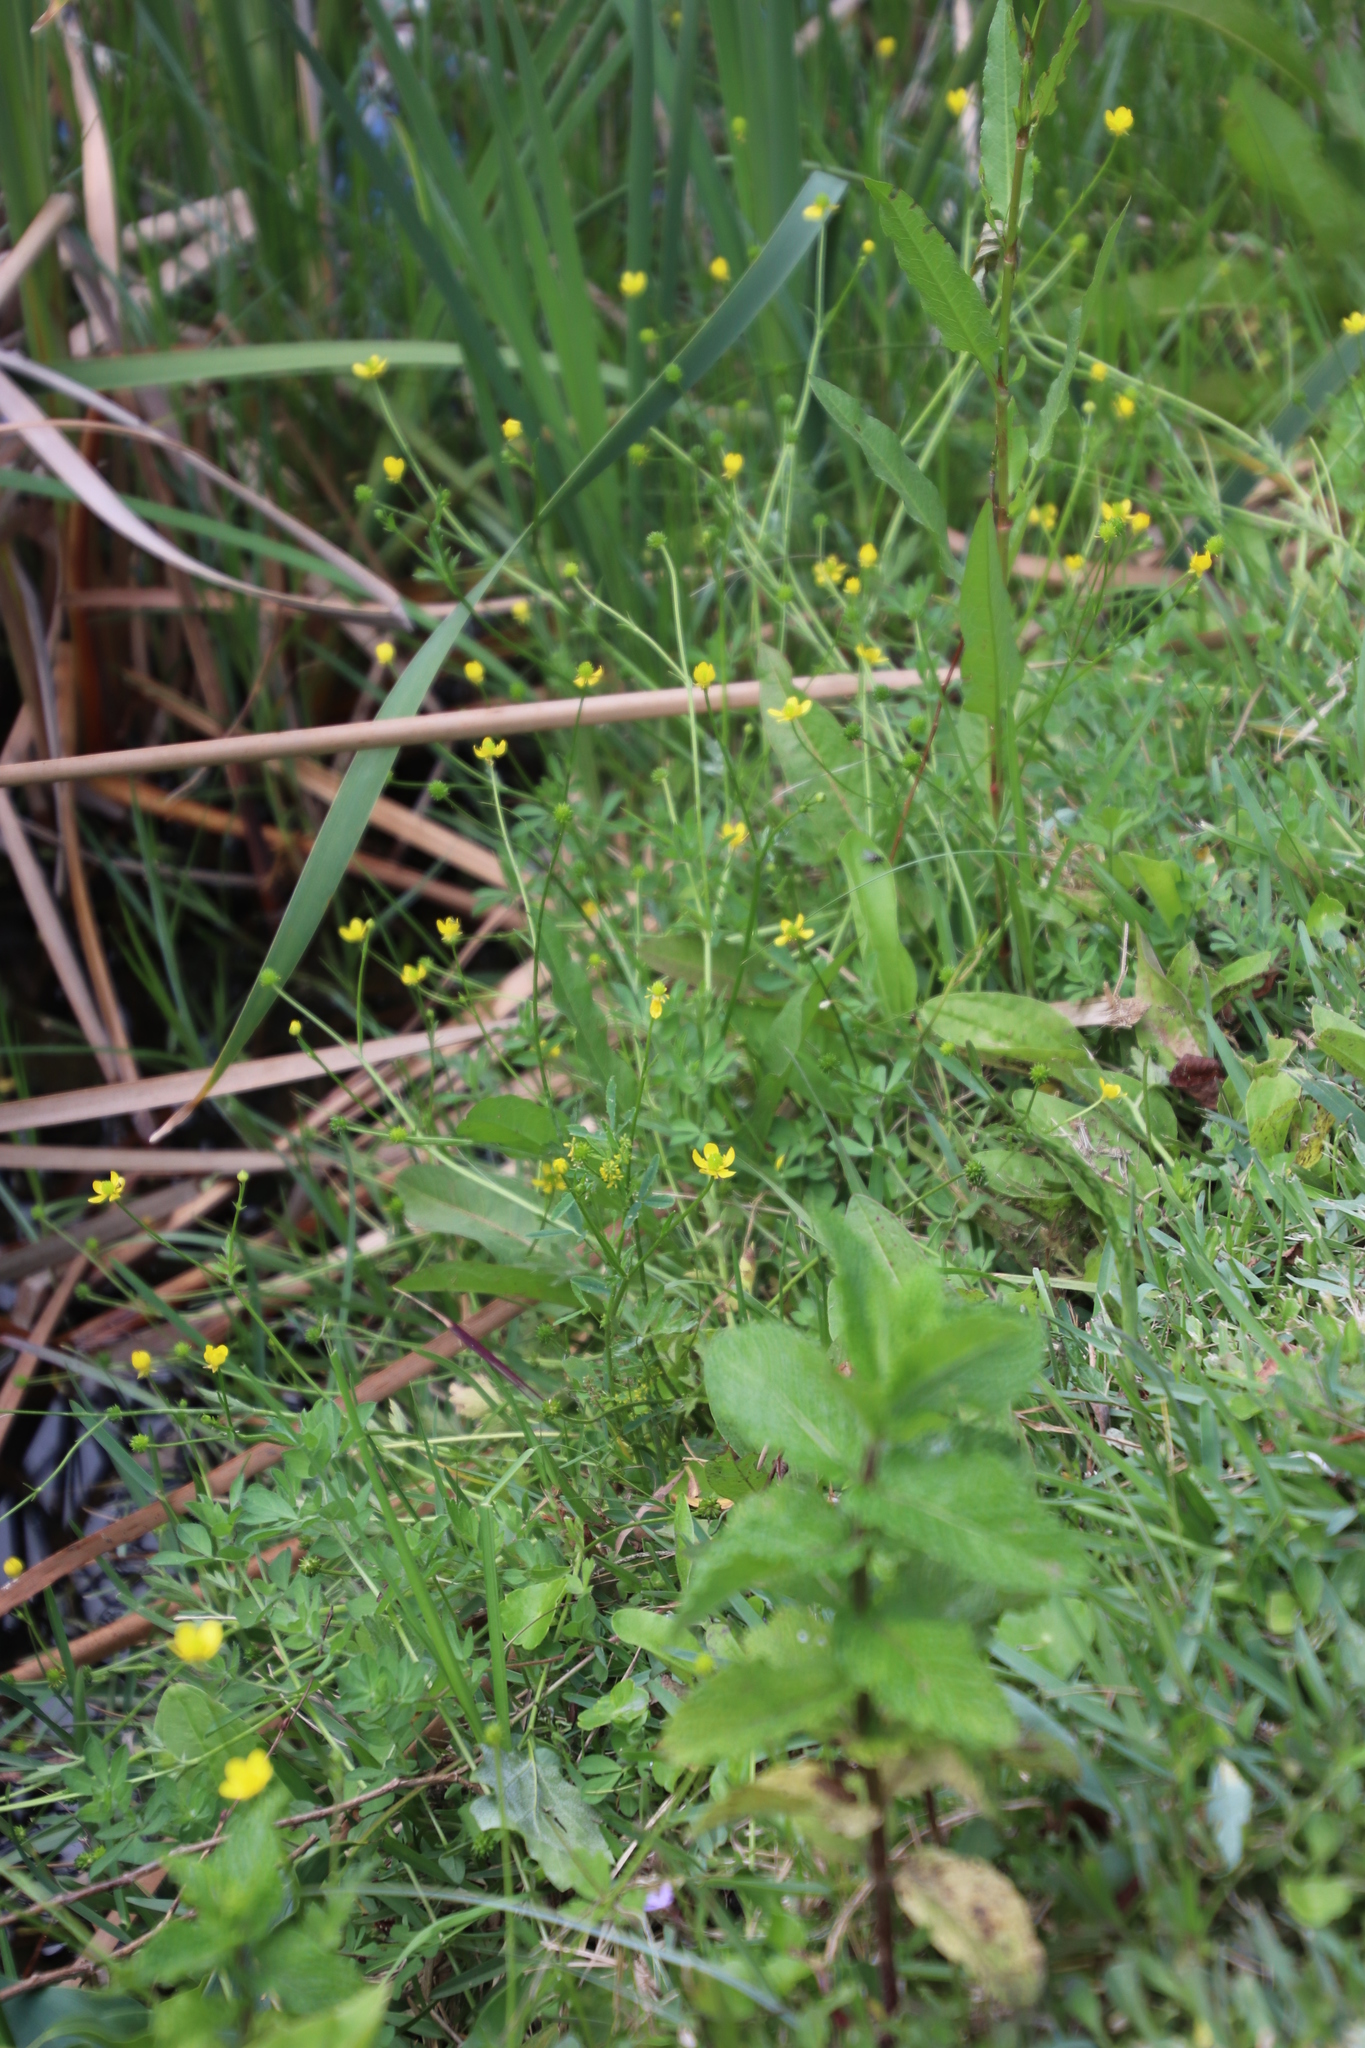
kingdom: Plantae
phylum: Tracheophyta
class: Magnoliopsida
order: Ranunculales
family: Ranunculaceae
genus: Ranunculus
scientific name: Ranunculus multifidus
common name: Wild buttercup
